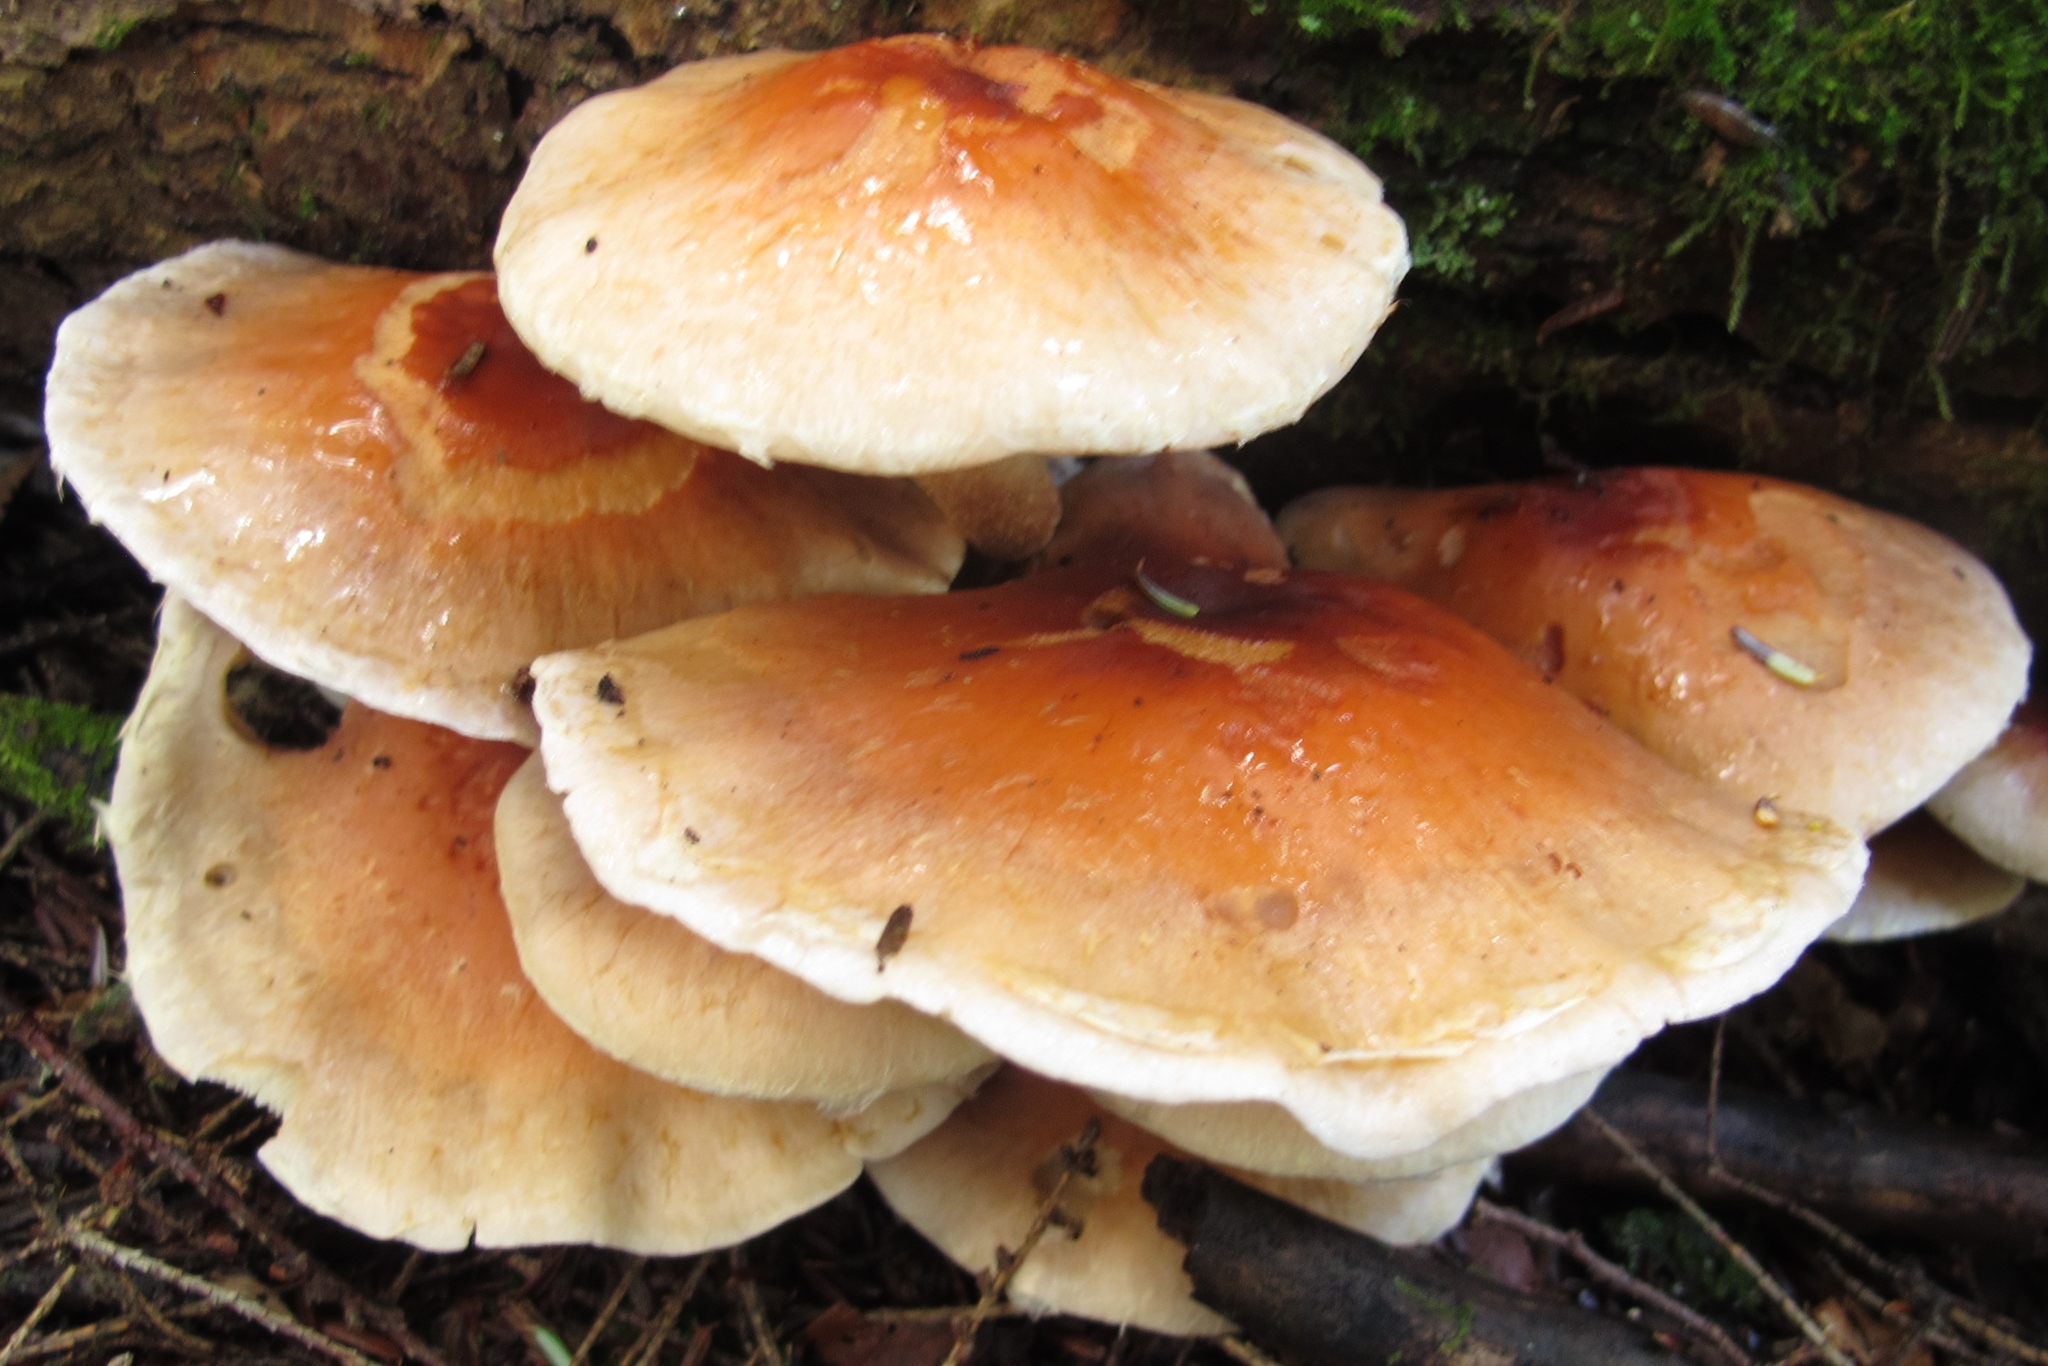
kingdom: Fungi
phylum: Basidiomycota
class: Agaricomycetes
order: Agaricales
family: Strophariaceae
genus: Hypholoma
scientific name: Hypholoma lateritium
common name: Brick caps
